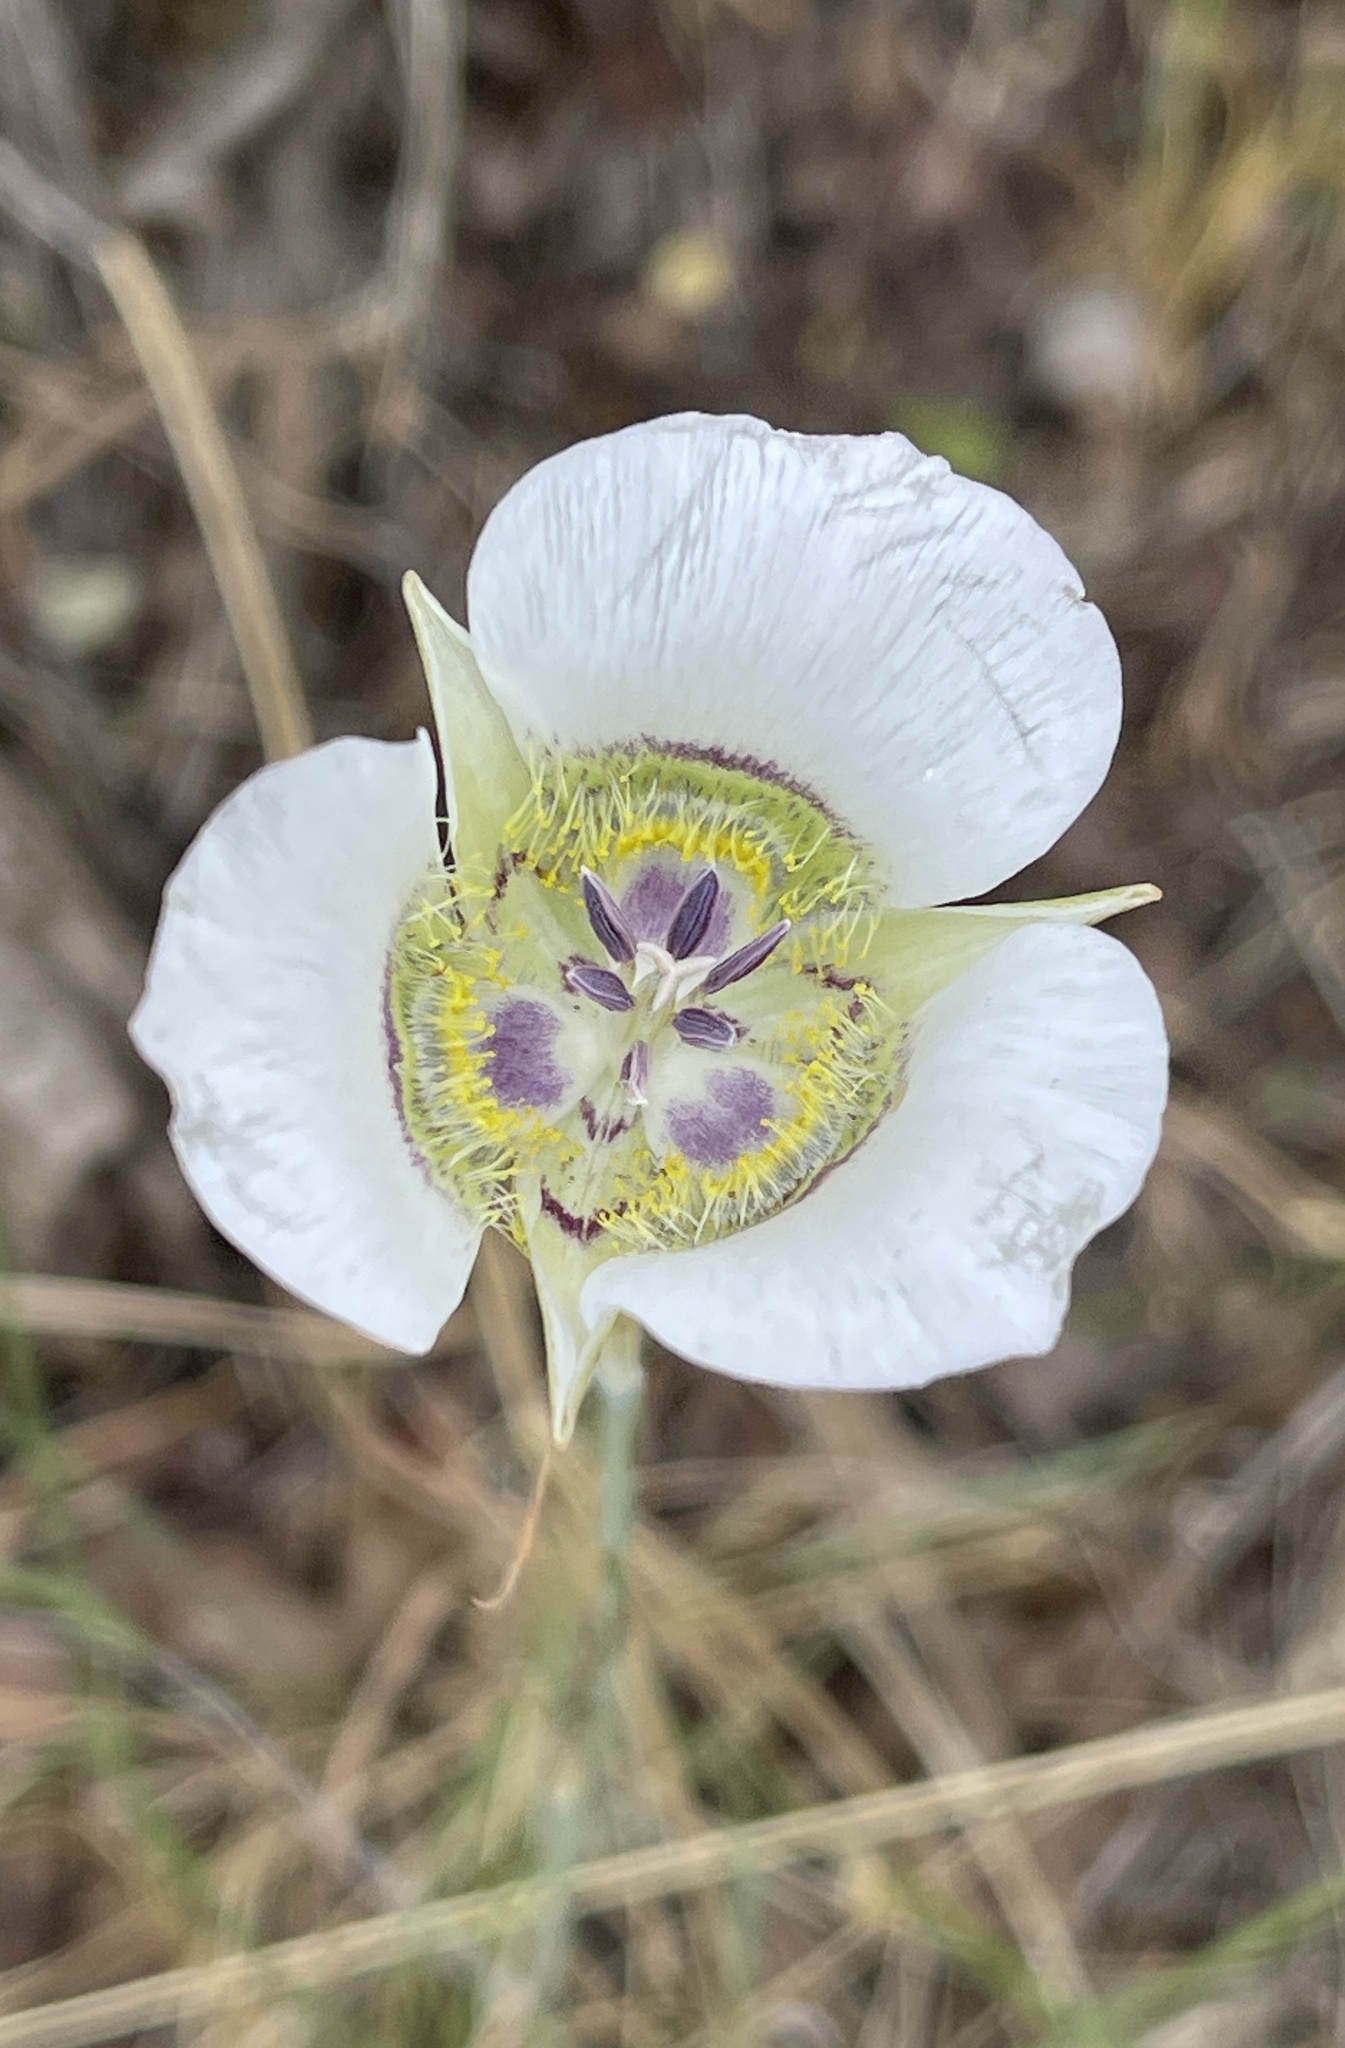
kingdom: Plantae
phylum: Tracheophyta
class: Liliopsida
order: Liliales
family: Liliaceae
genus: Calochortus
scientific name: Calochortus gunnisonii
